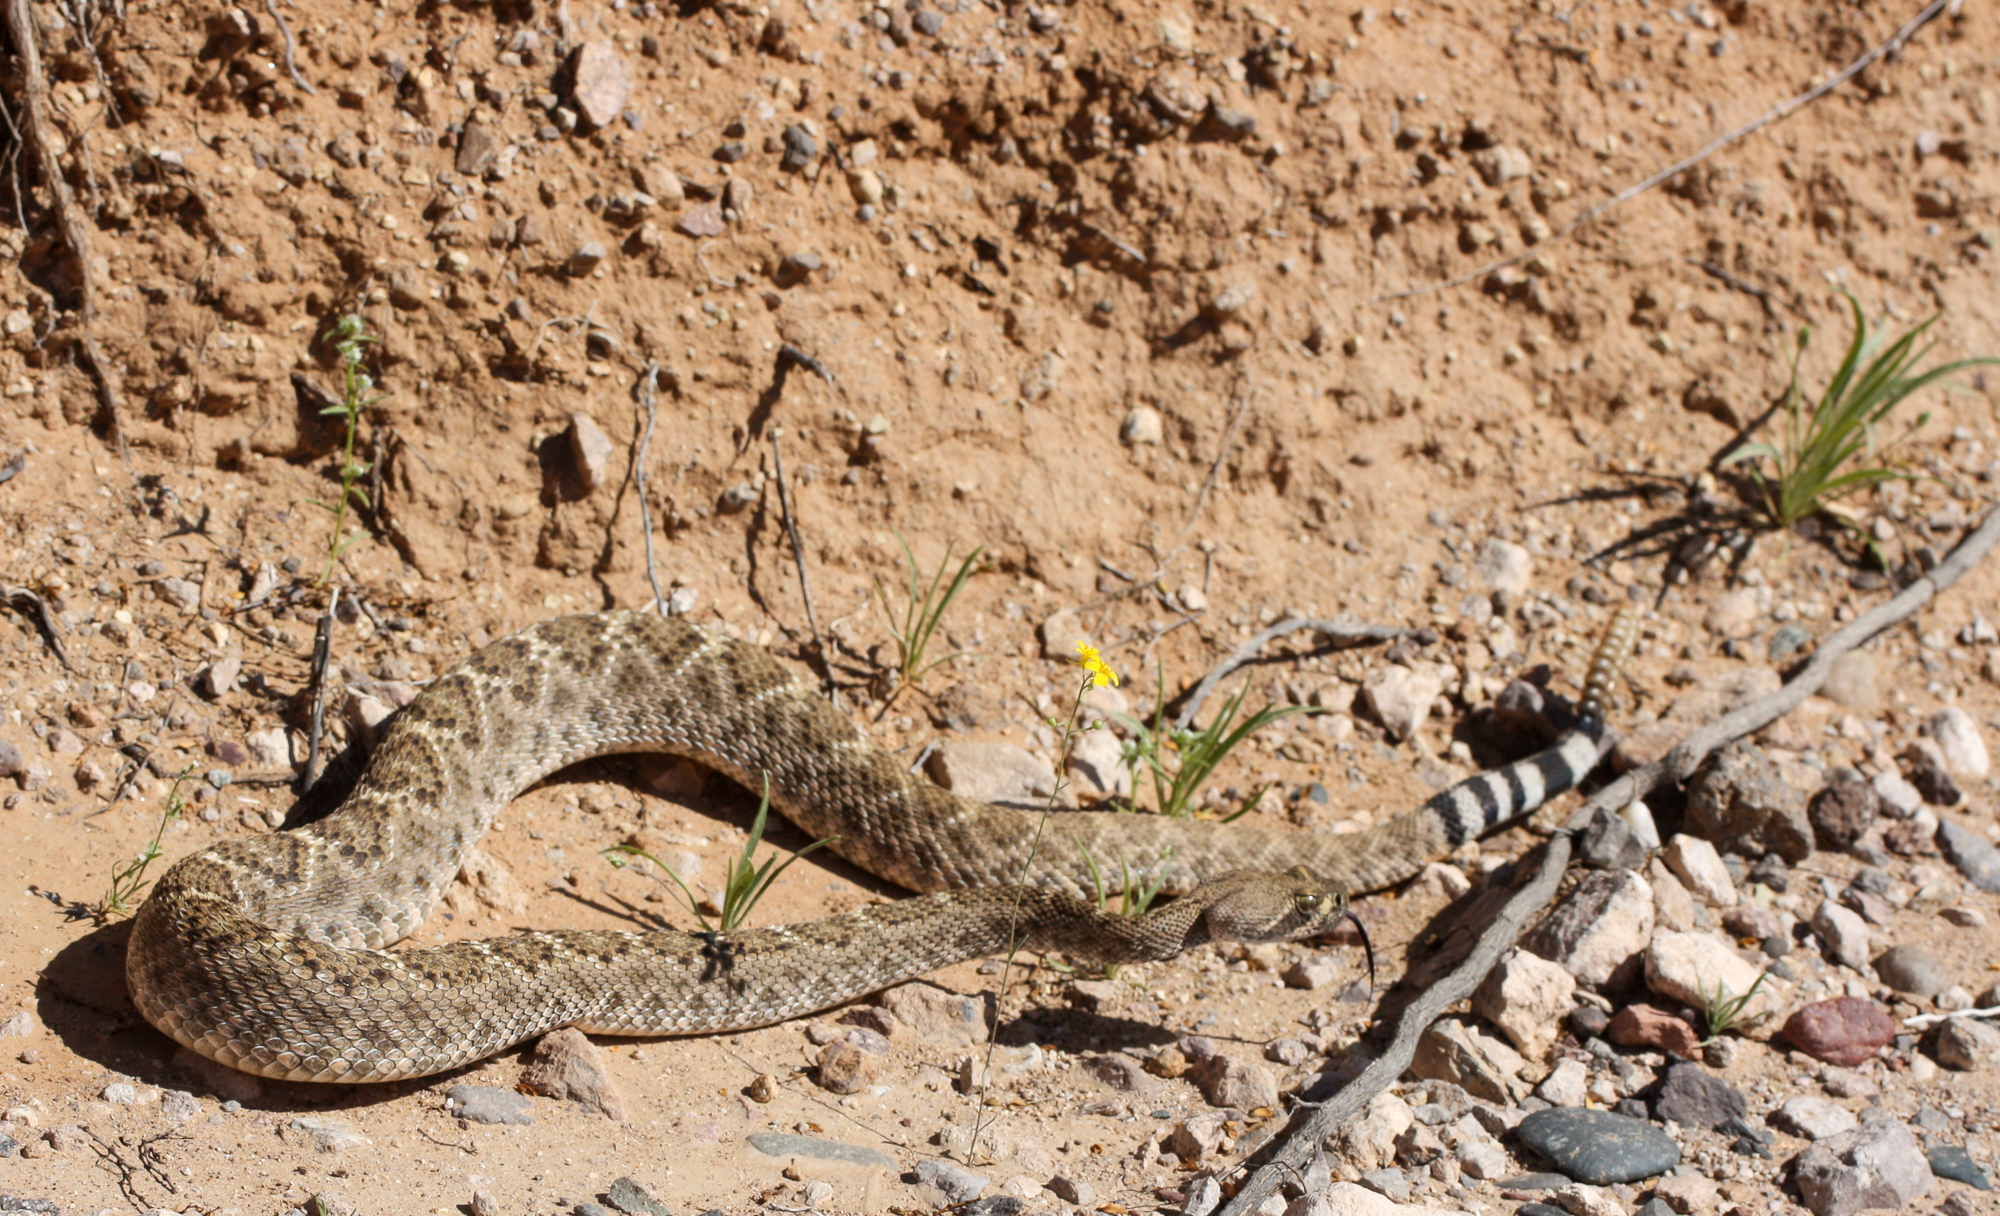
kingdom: Animalia
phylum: Chordata
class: Squamata
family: Viperidae
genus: Crotalus
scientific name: Crotalus atrox
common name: Western diamond-backed rattlesnake
